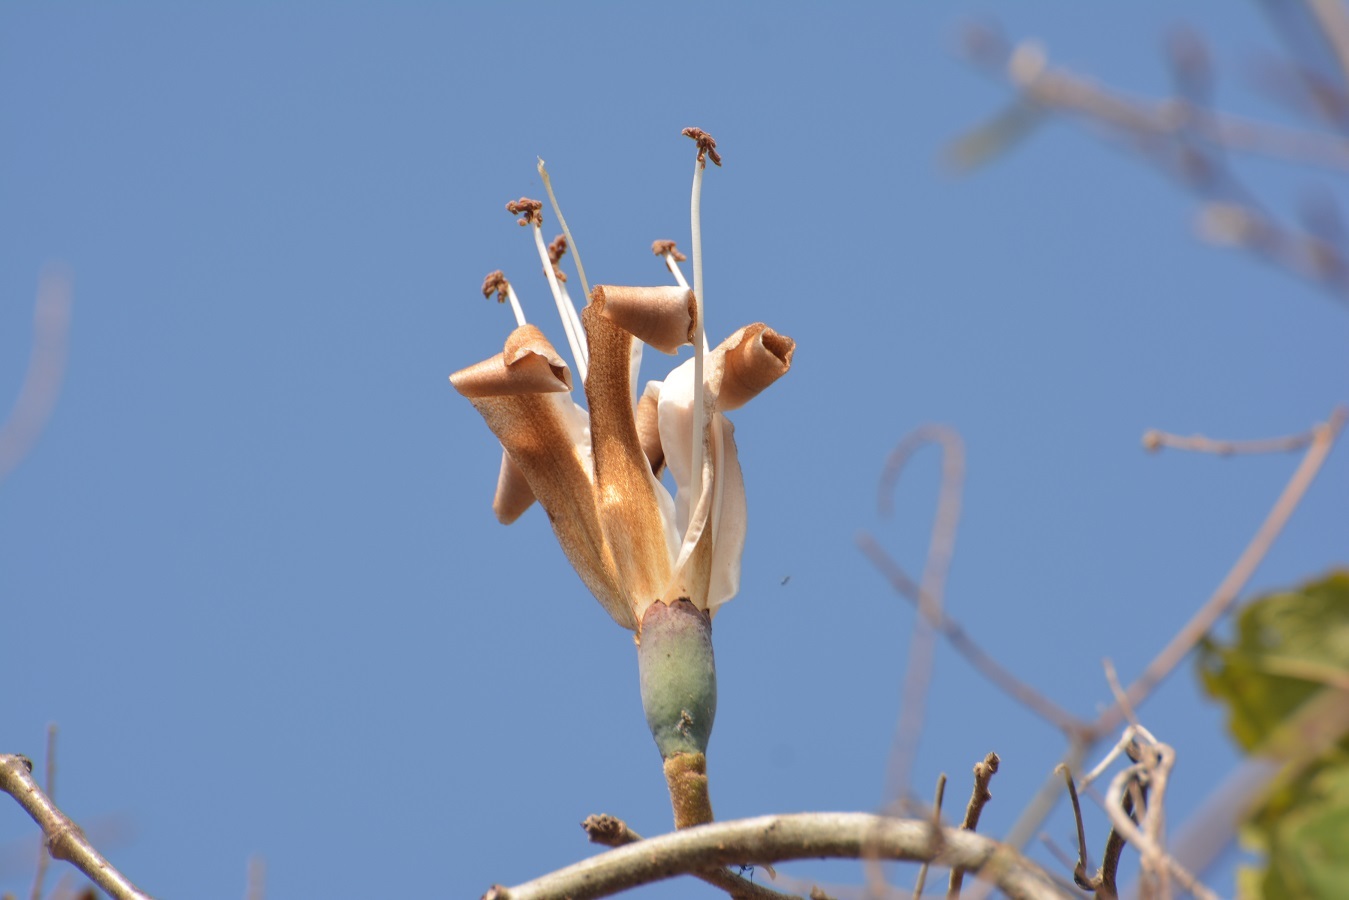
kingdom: Plantae
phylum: Tracheophyta
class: Magnoliopsida
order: Malvales
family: Malvaceae
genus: Ceiba
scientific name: Ceiba aesculifolia
